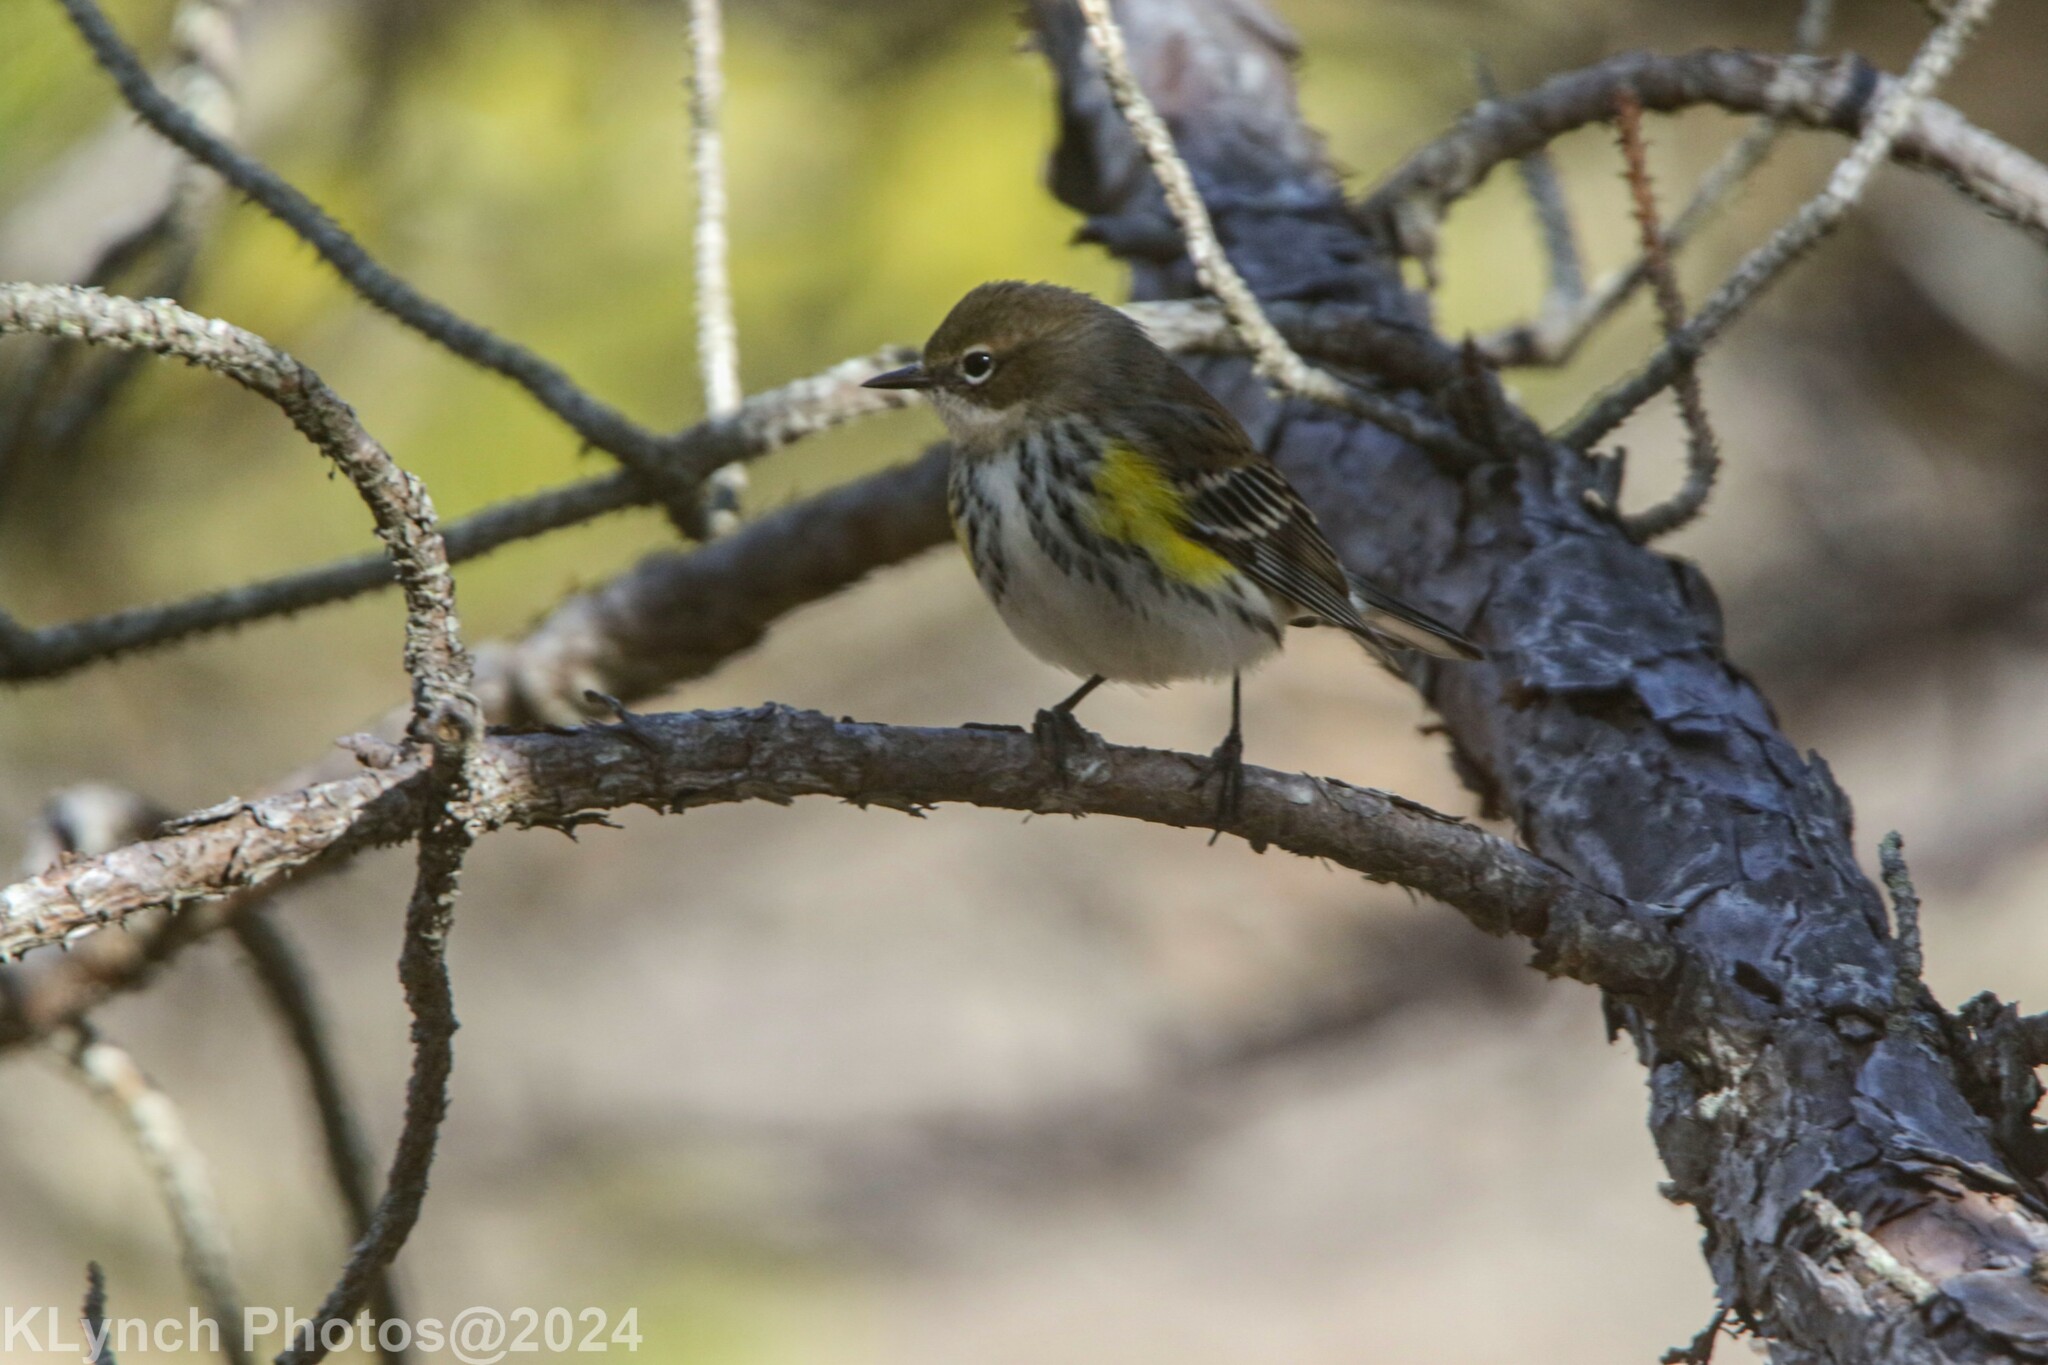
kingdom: Animalia
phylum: Chordata
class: Aves
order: Passeriformes
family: Parulidae
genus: Setophaga
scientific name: Setophaga coronata
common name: Myrtle warbler
